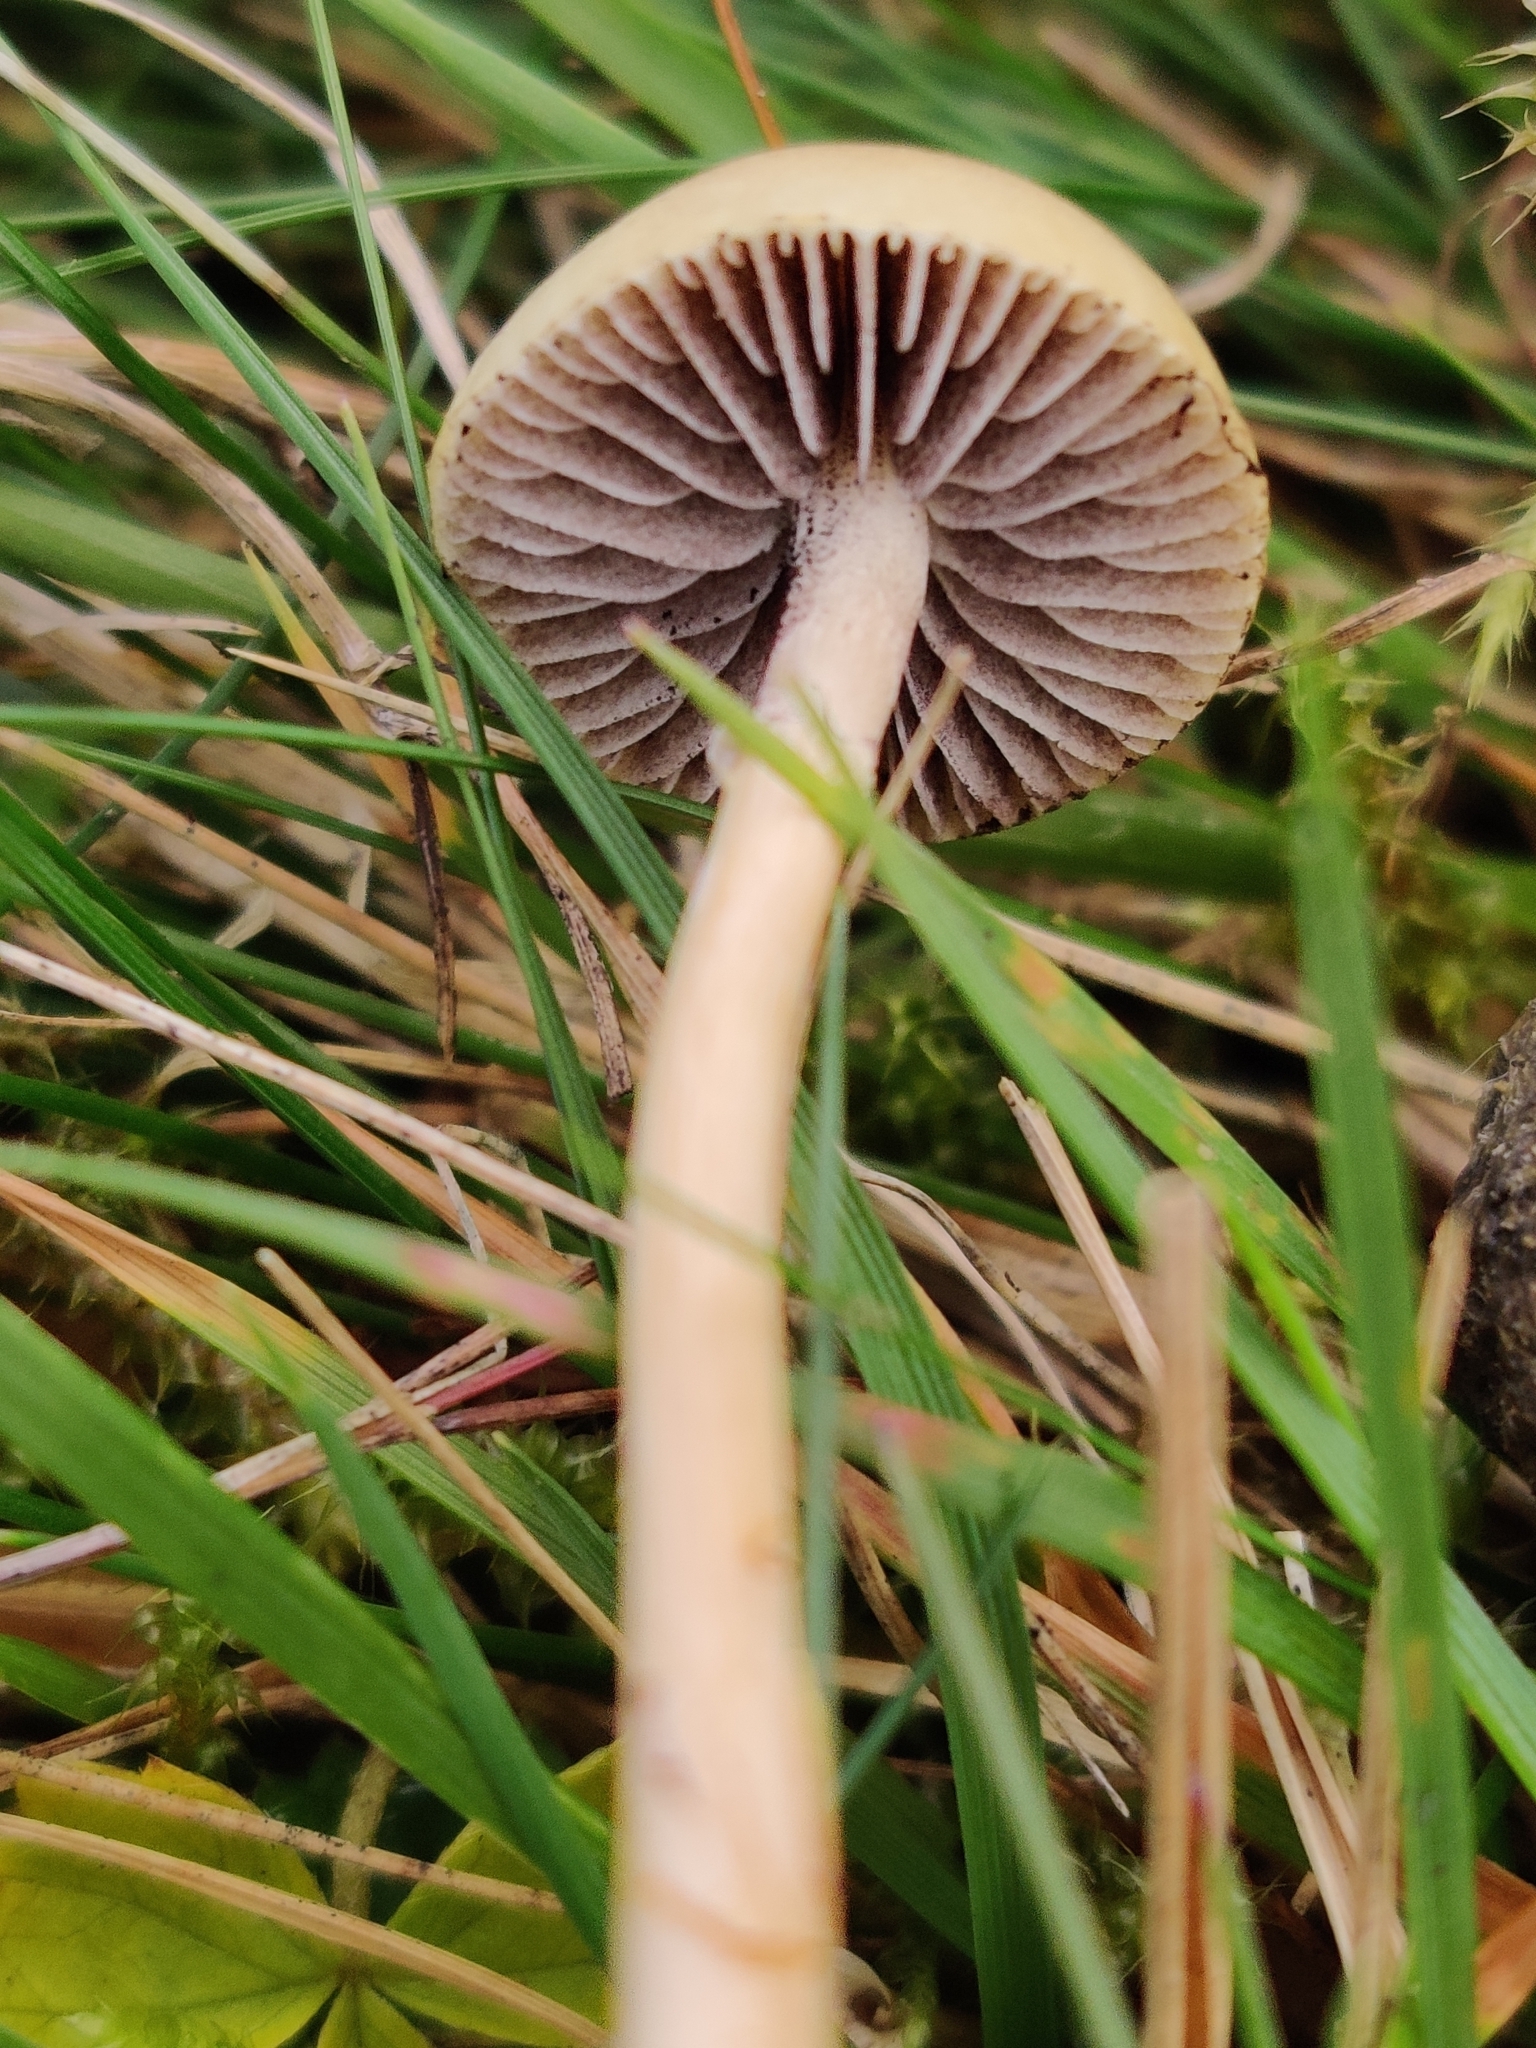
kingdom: Fungi
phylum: Basidiomycota
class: Agaricomycetes
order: Agaricales
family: Strophariaceae
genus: Protostropharia
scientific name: Protostropharia semiglobata
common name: Dung roundhead
